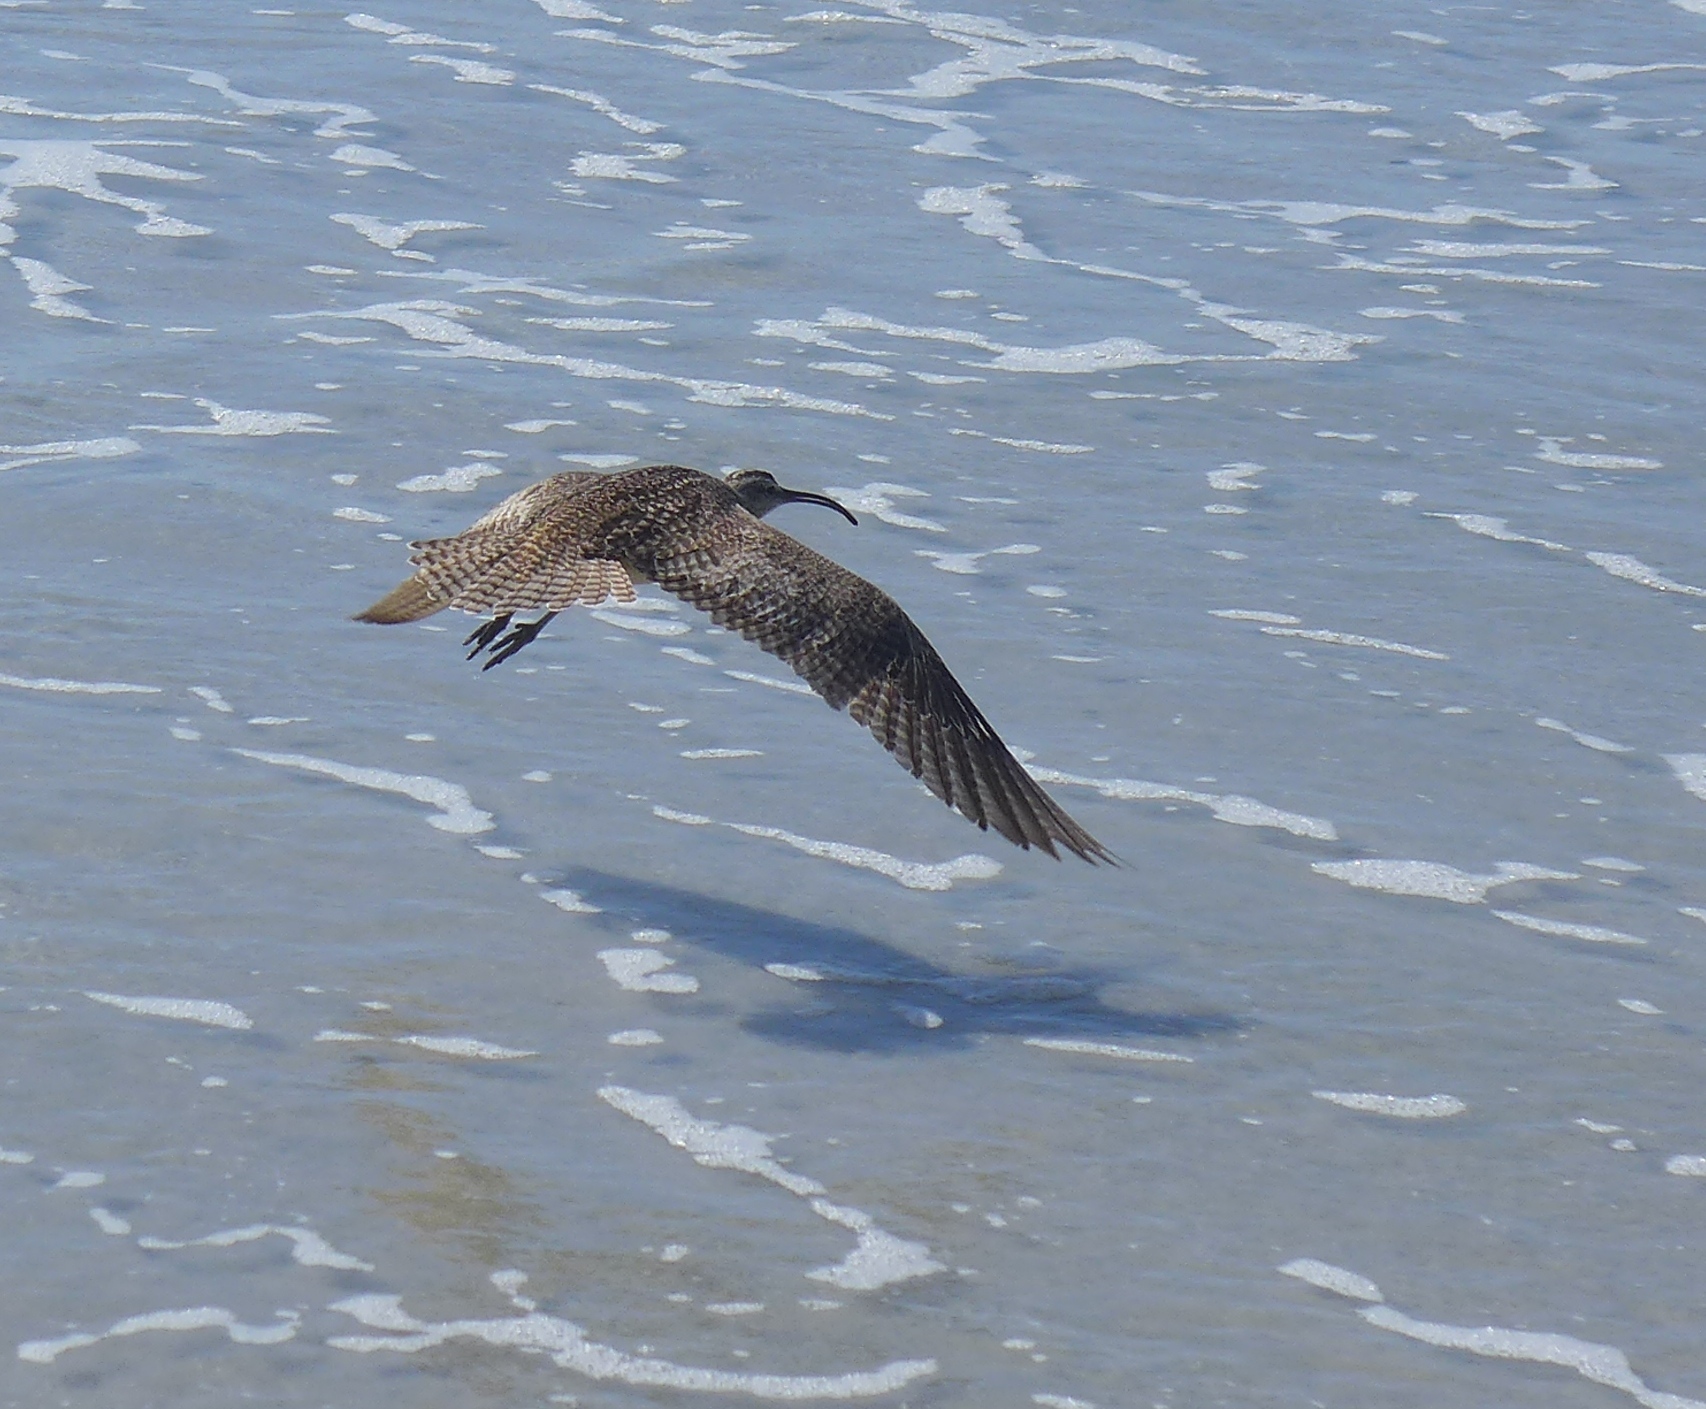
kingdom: Animalia
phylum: Chordata
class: Aves
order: Charadriiformes
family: Scolopacidae
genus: Numenius
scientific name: Numenius phaeopus
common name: Whimbrel
